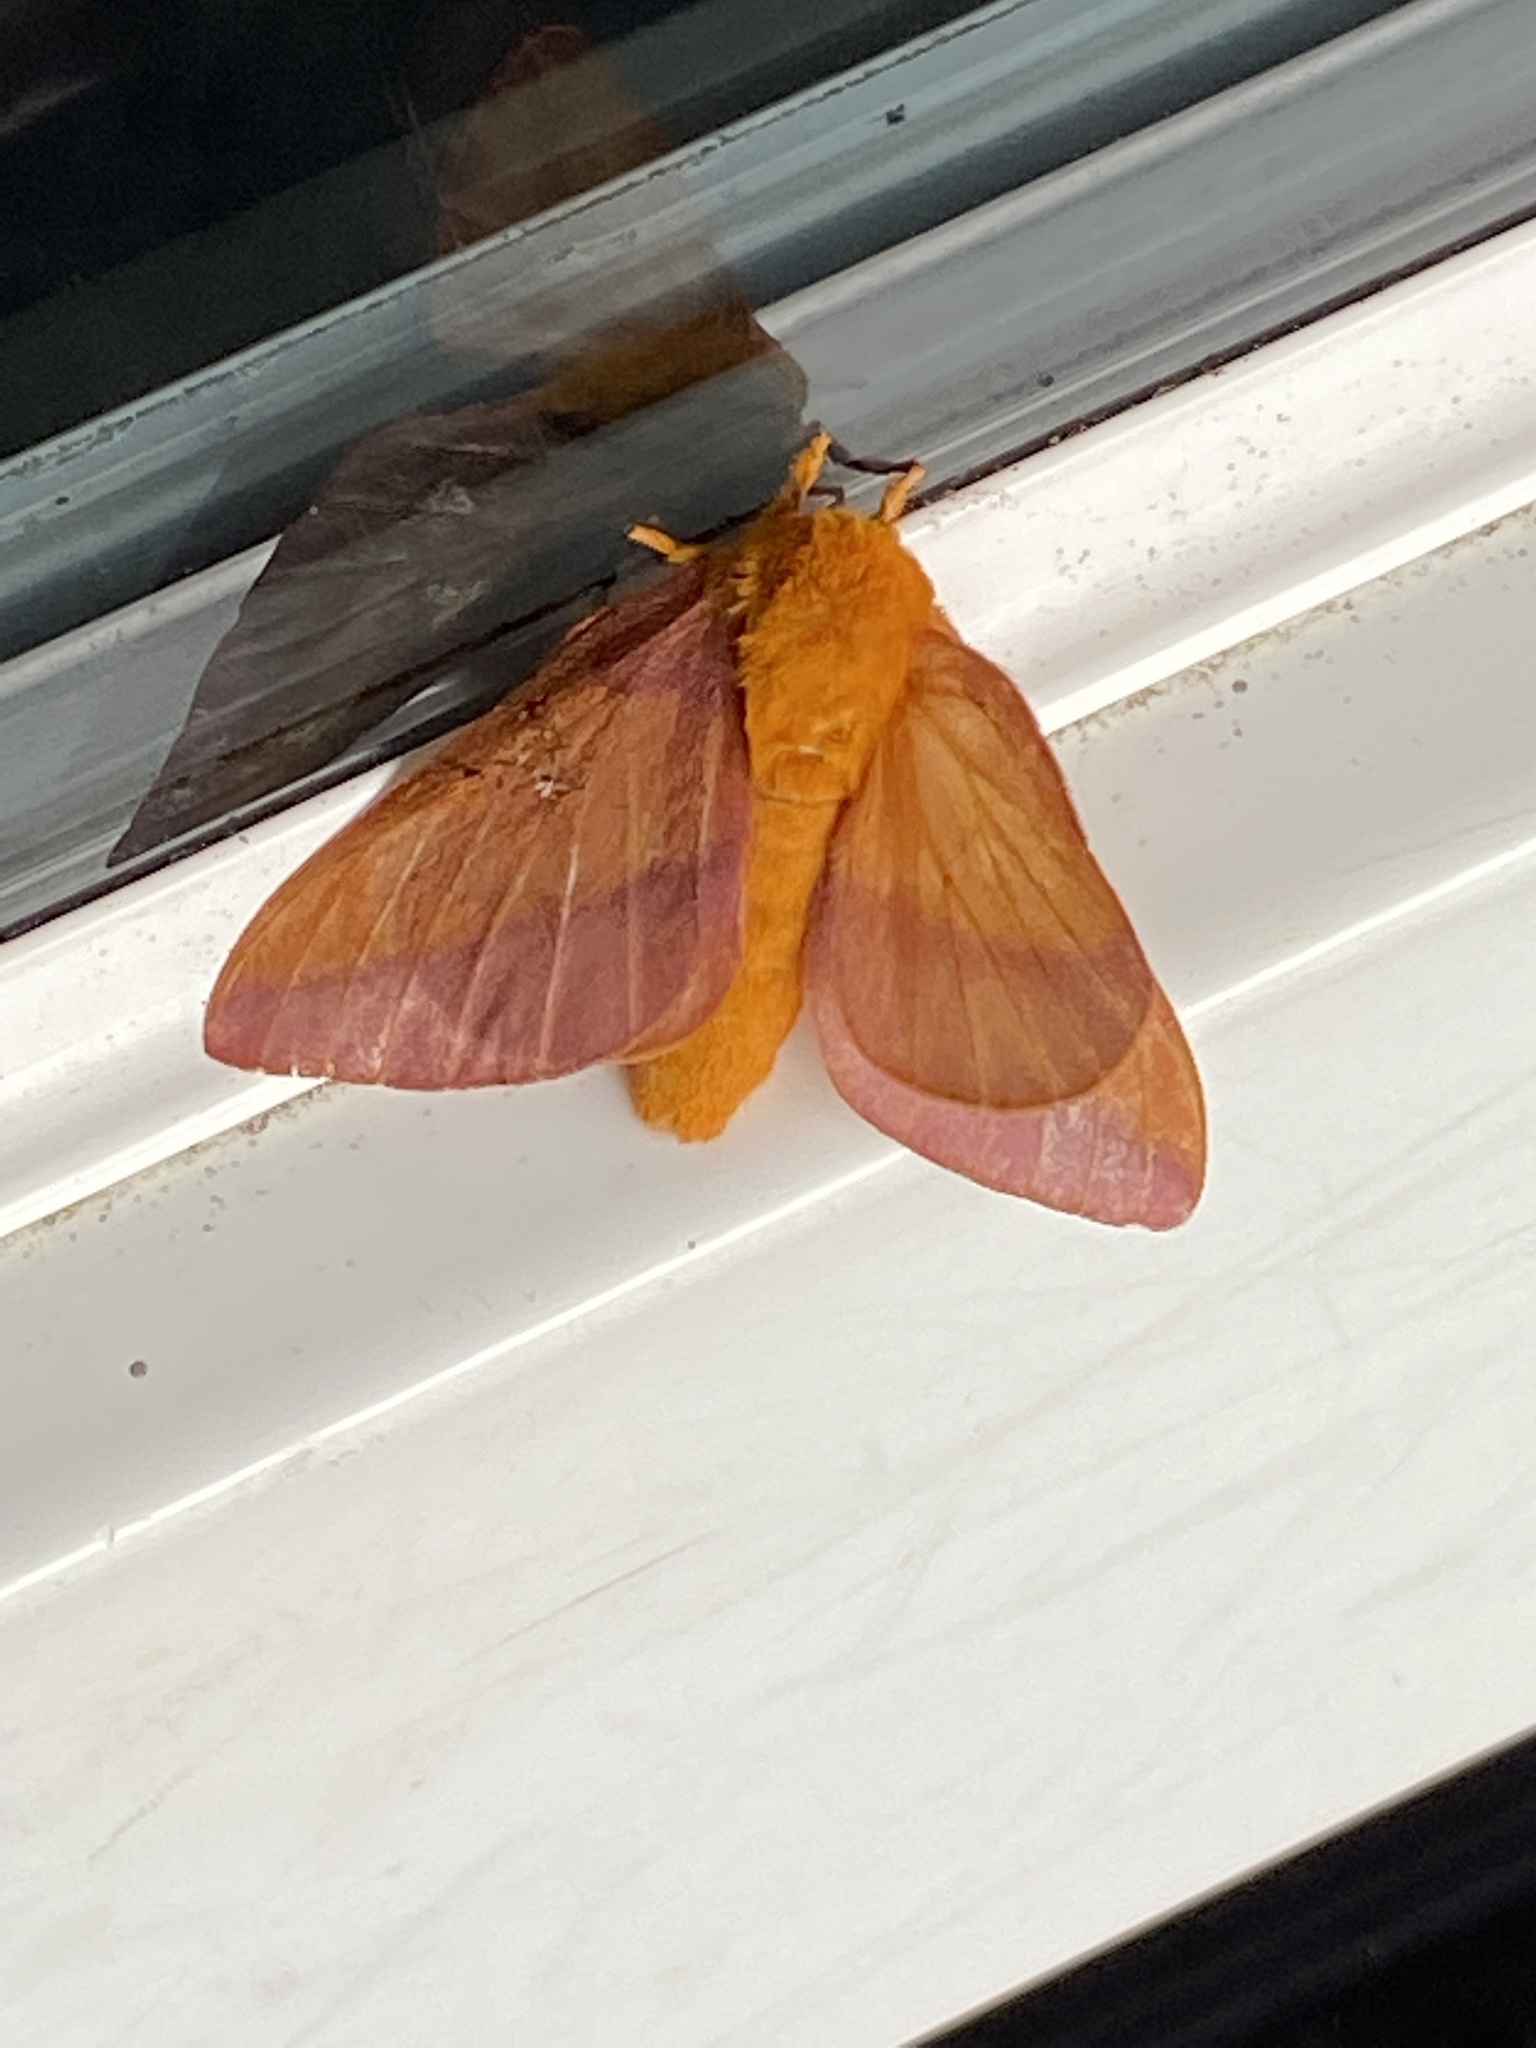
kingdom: Animalia
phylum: Arthropoda
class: Insecta
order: Lepidoptera
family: Saturniidae
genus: Anisota
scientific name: Anisota virginiensis
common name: Pink striped oakworm moth
